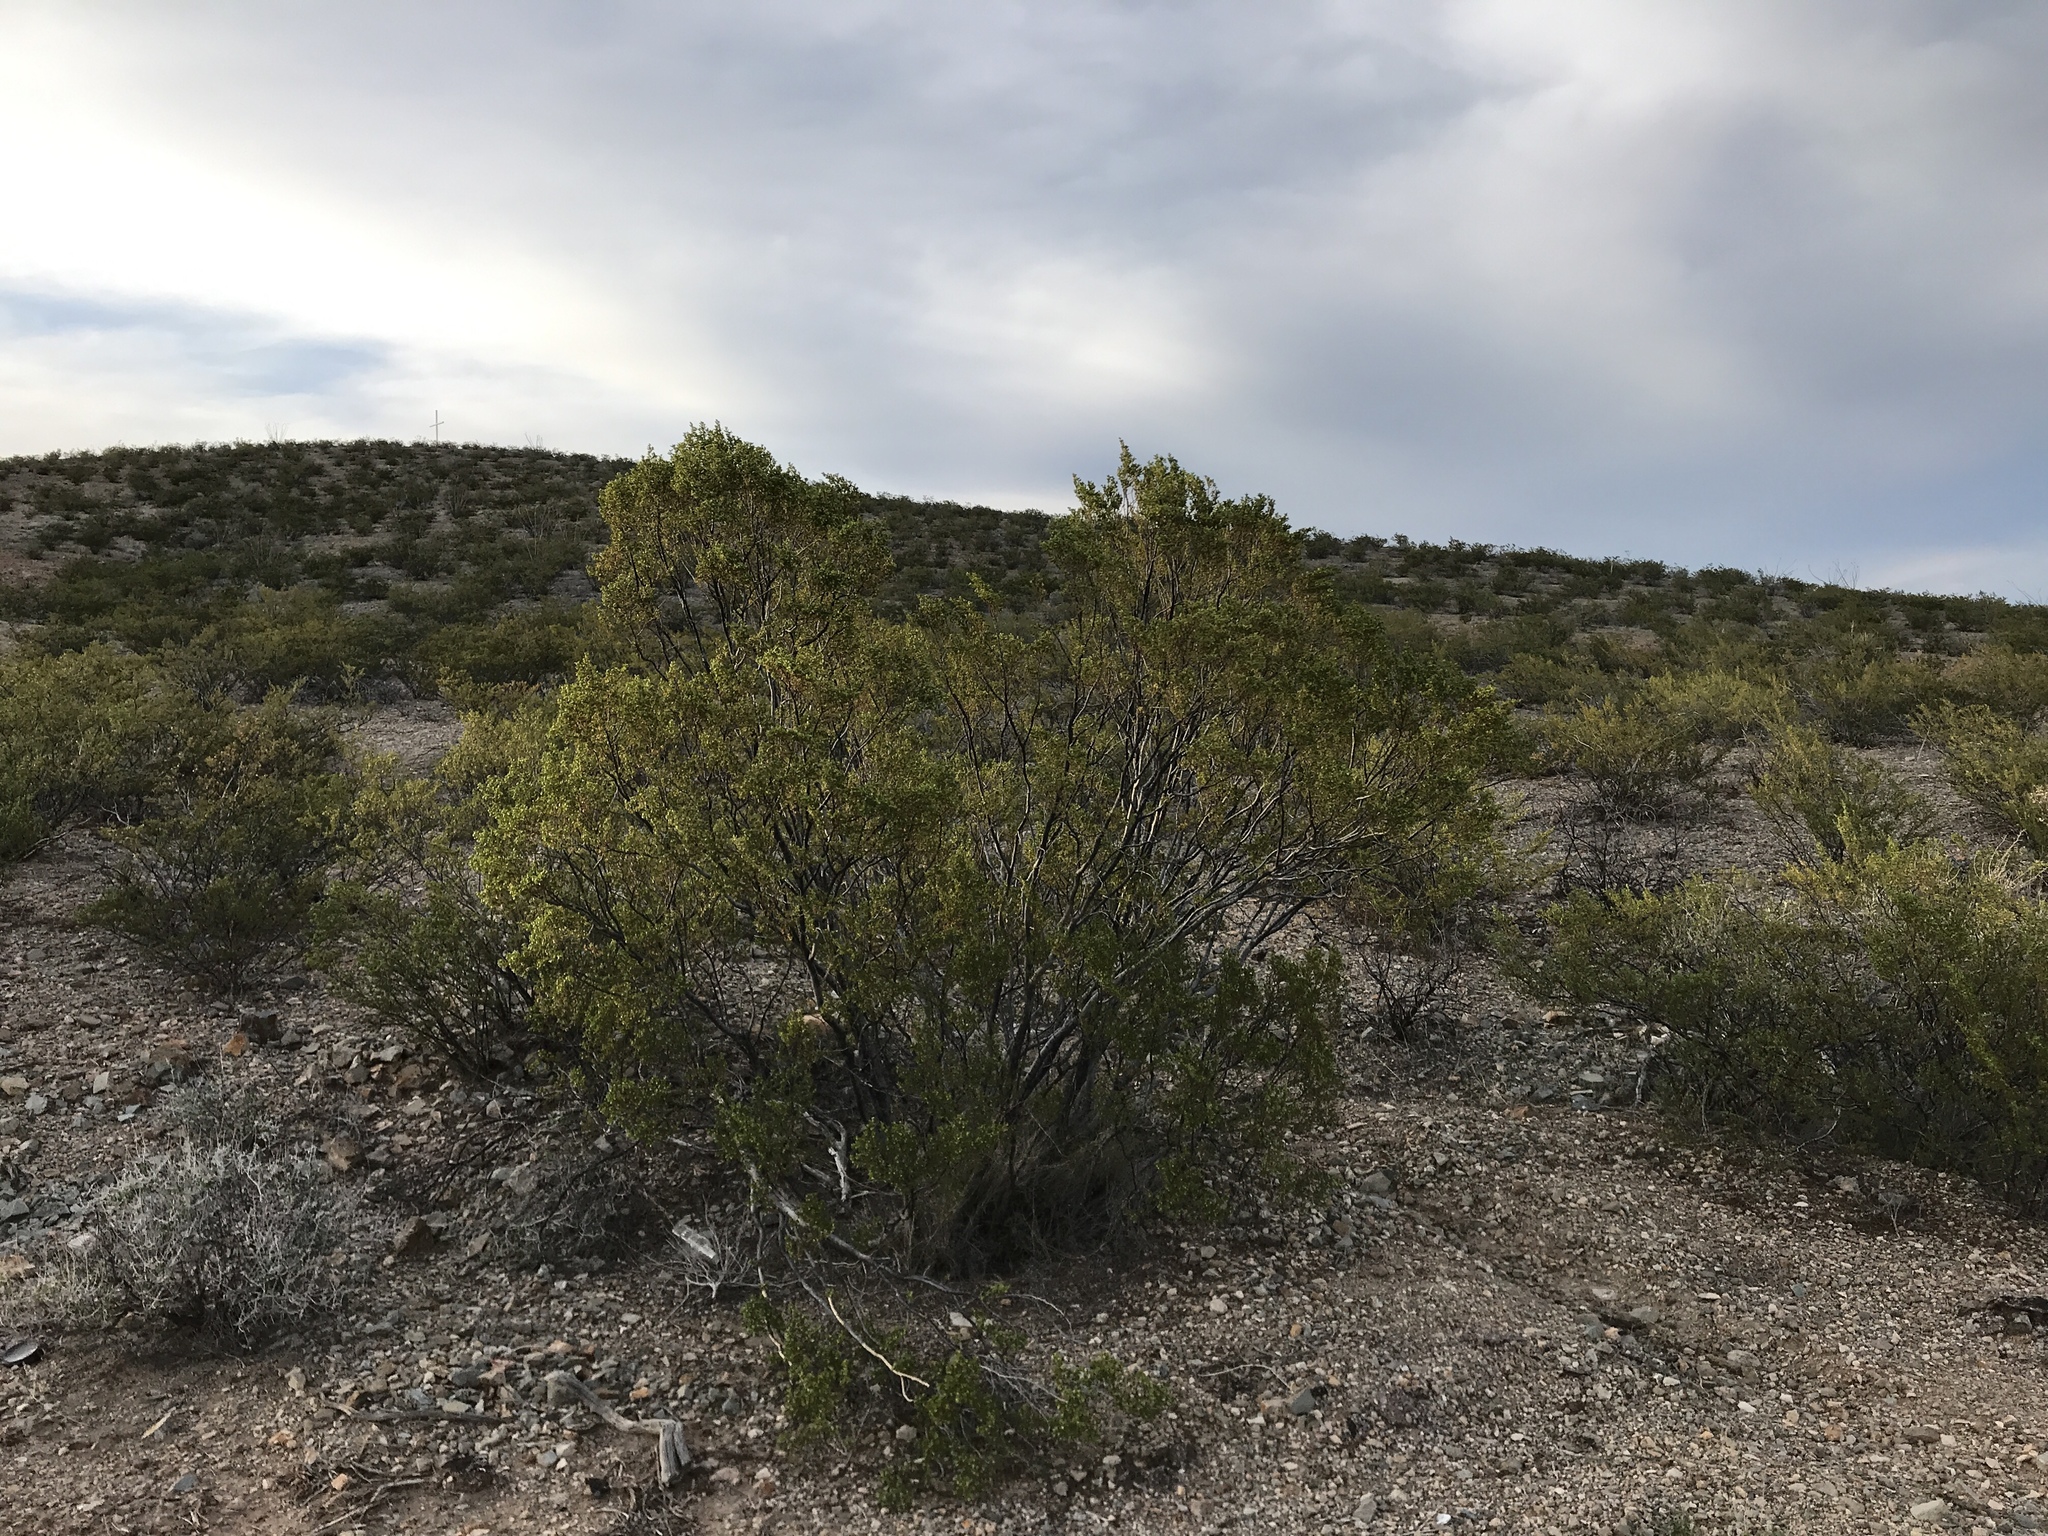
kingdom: Plantae
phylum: Tracheophyta
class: Magnoliopsida
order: Zygophyllales
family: Zygophyllaceae
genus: Larrea
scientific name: Larrea tridentata
